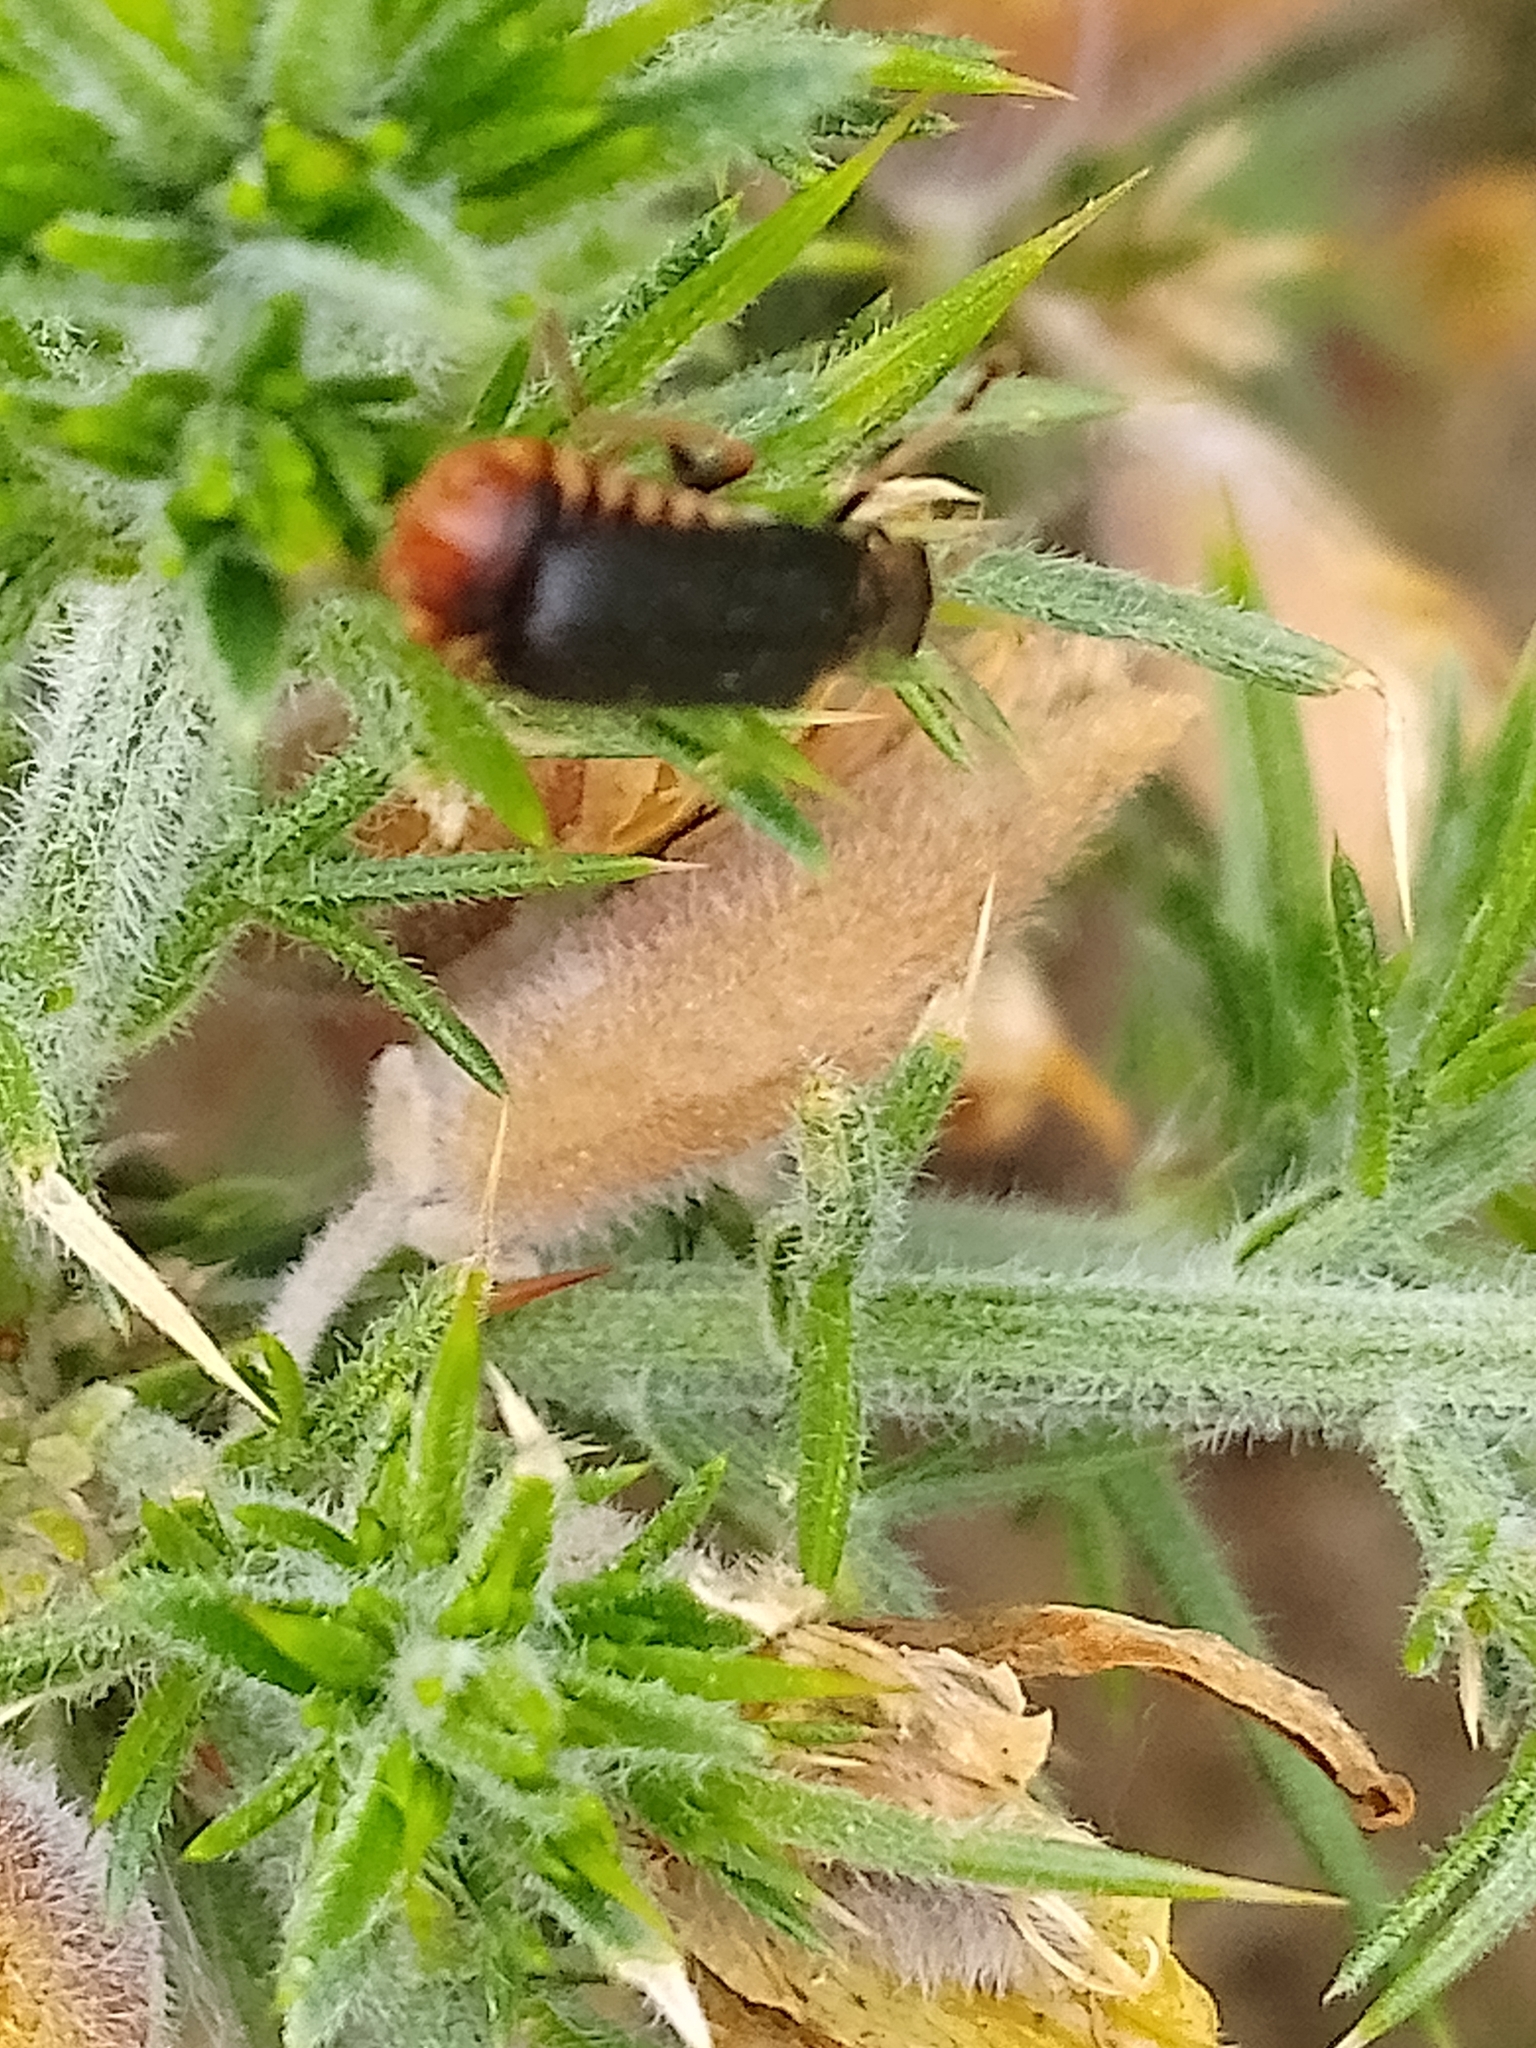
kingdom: Animalia
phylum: Arthropoda
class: Insecta
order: Coleoptera
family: Cantharidae
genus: Cantharis
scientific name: Cantharis flavilabris
